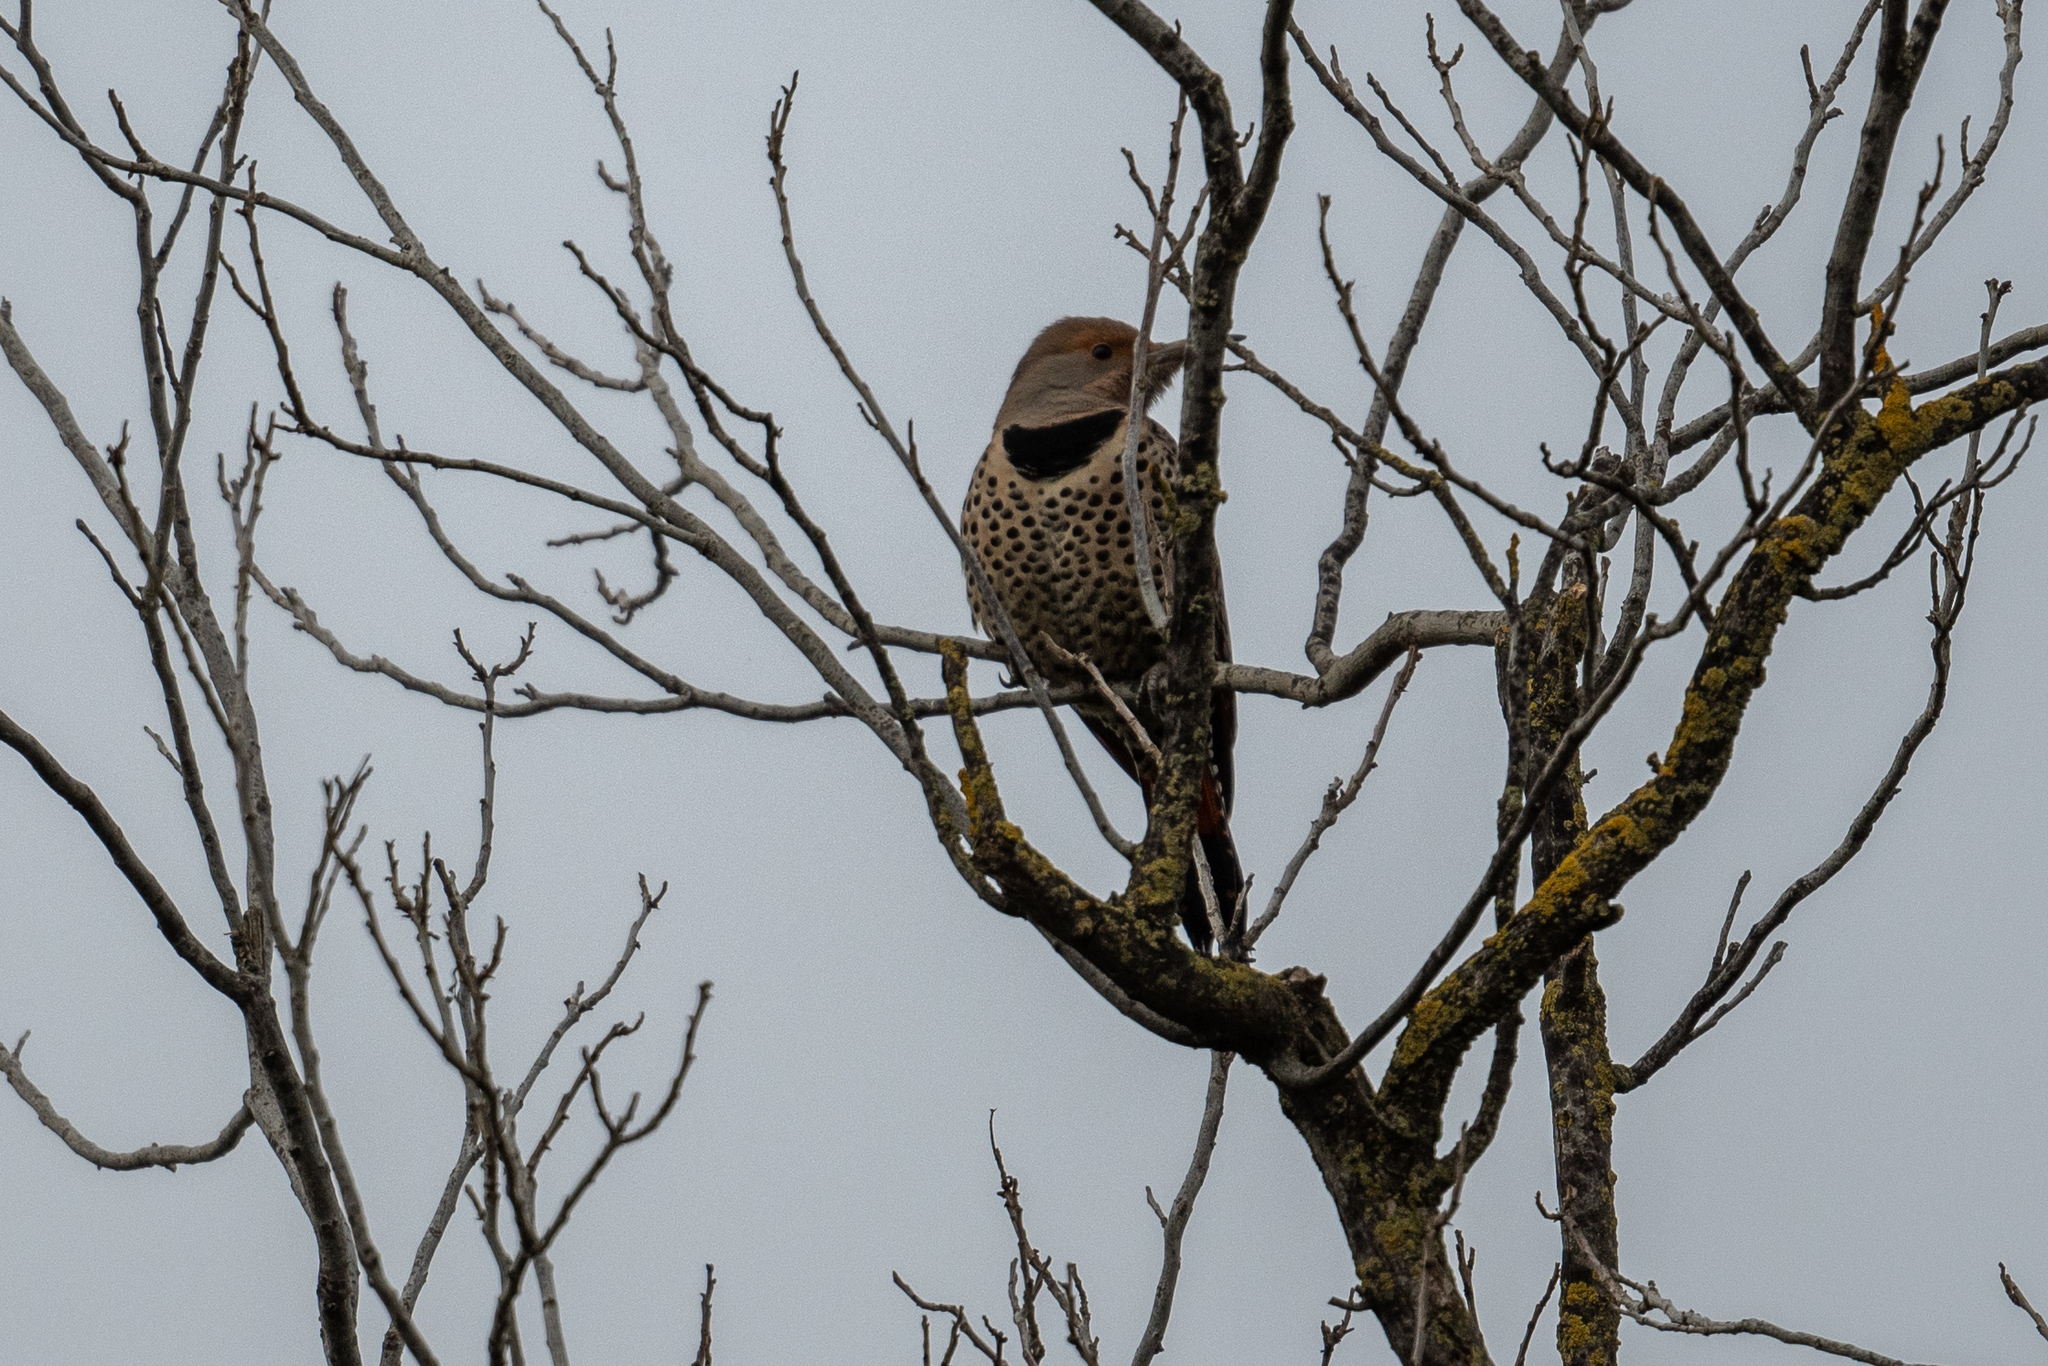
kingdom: Animalia
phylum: Chordata
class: Aves
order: Piciformes
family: Picidae
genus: Colaptes
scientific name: Colaptes auratus
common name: Northern flicker
